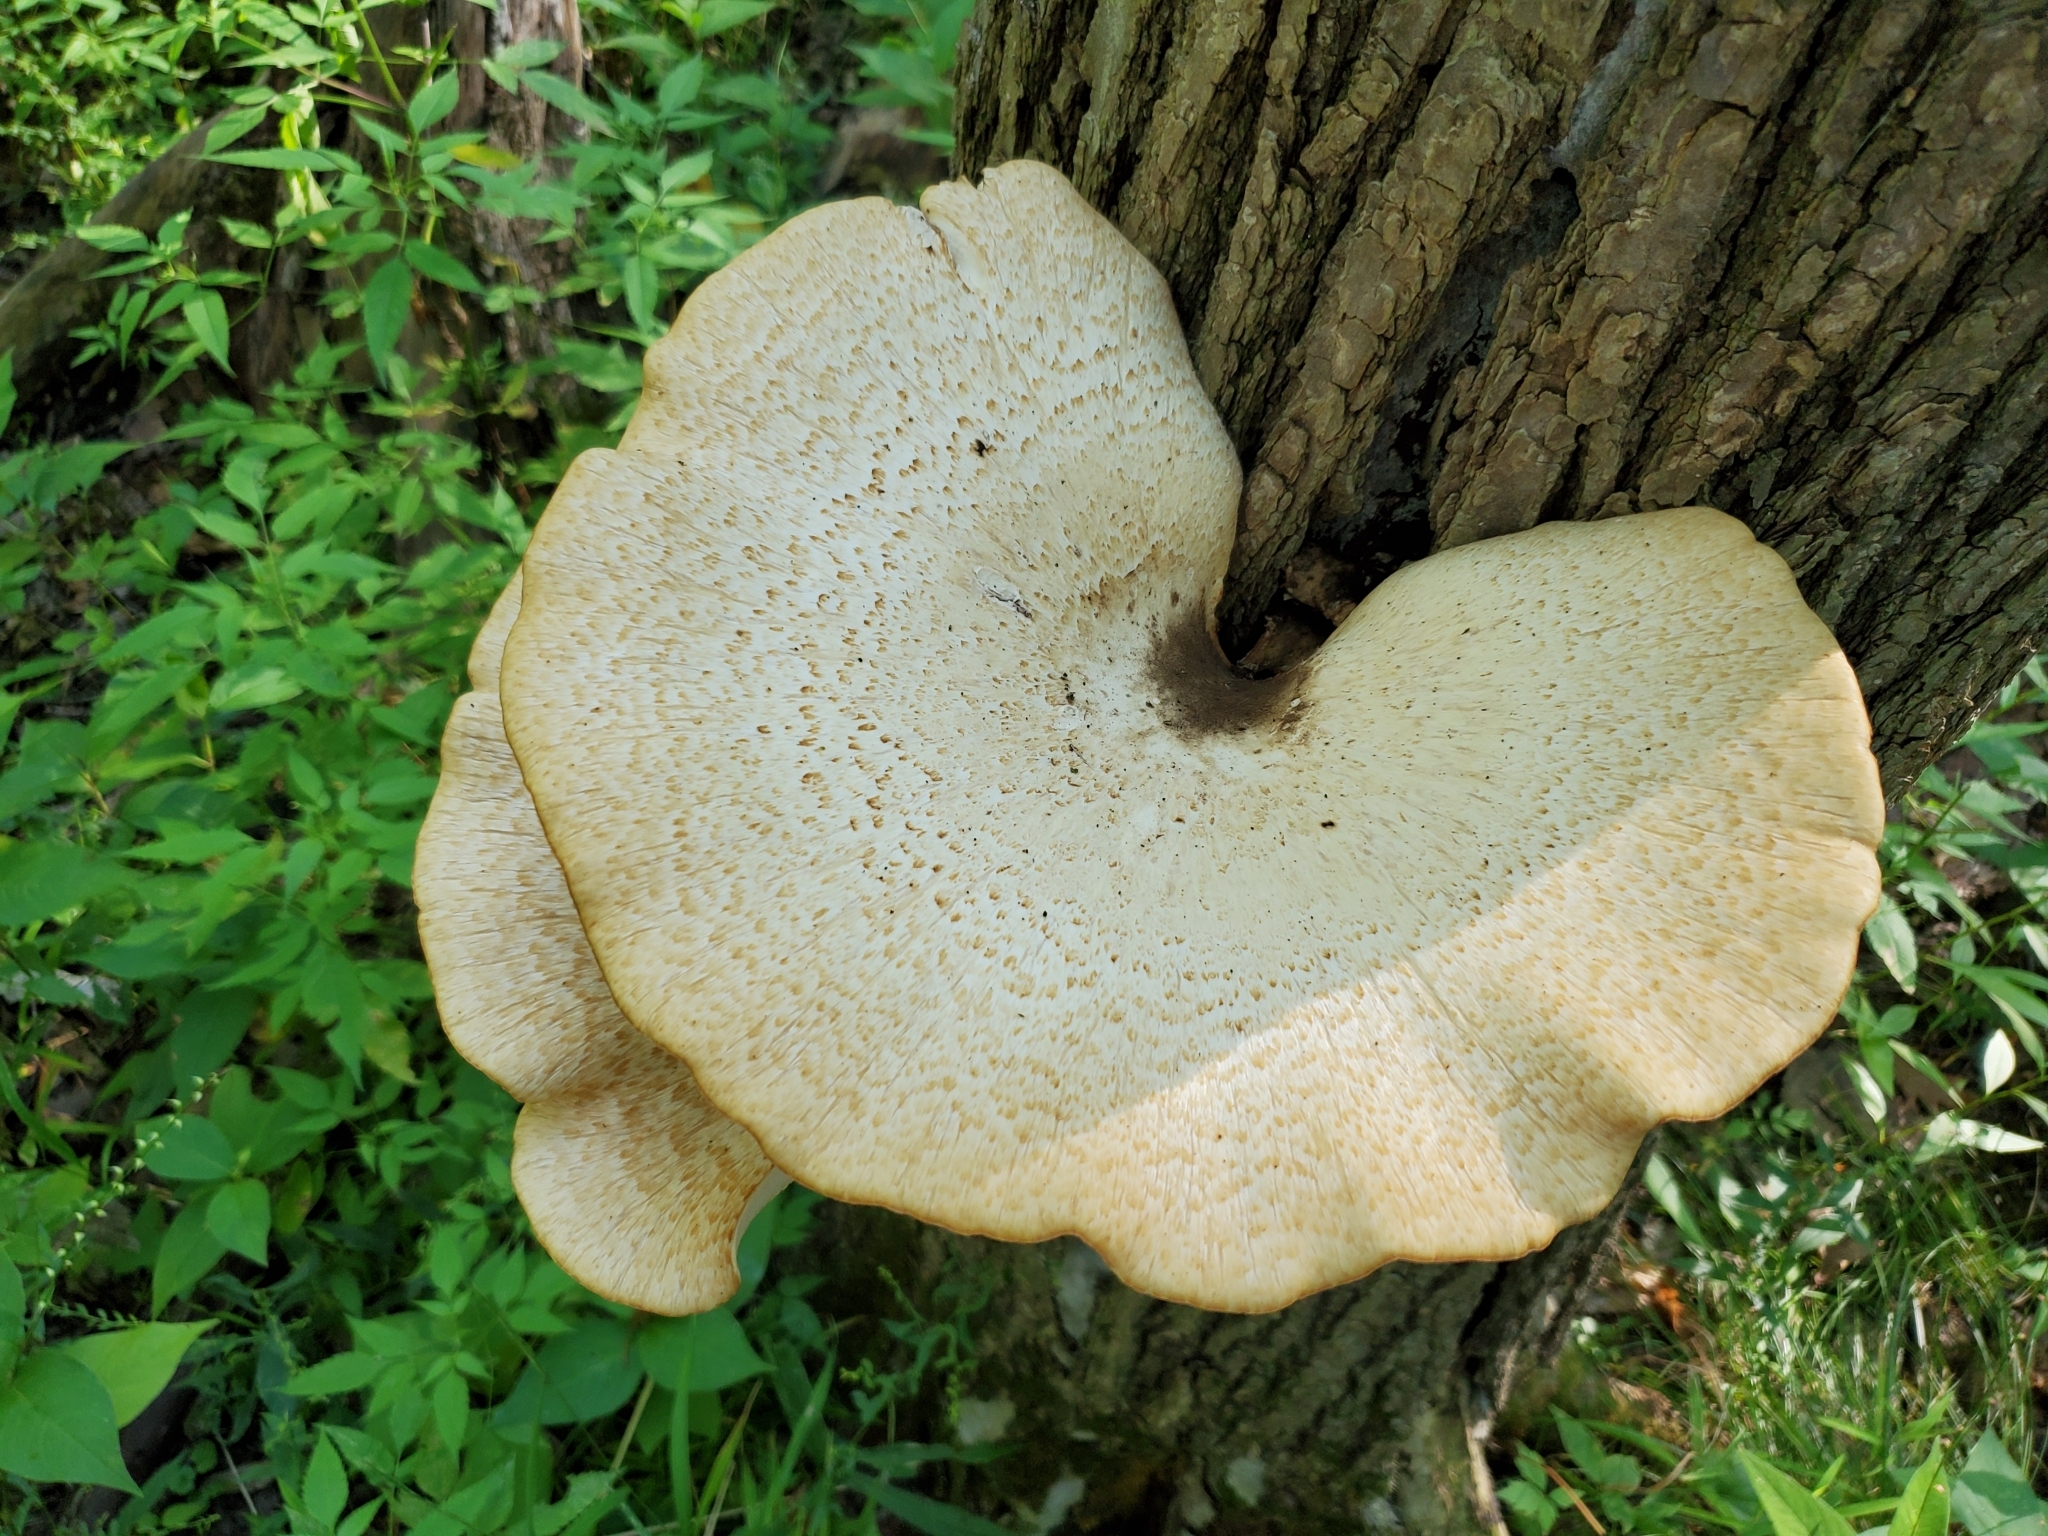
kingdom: Fungi
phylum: Basidiomycota
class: Agaricomycetes
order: Polyporales
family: Polyporaceae
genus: Cerioporus
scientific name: Cerioporus squamosus
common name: Dryad's saddle
